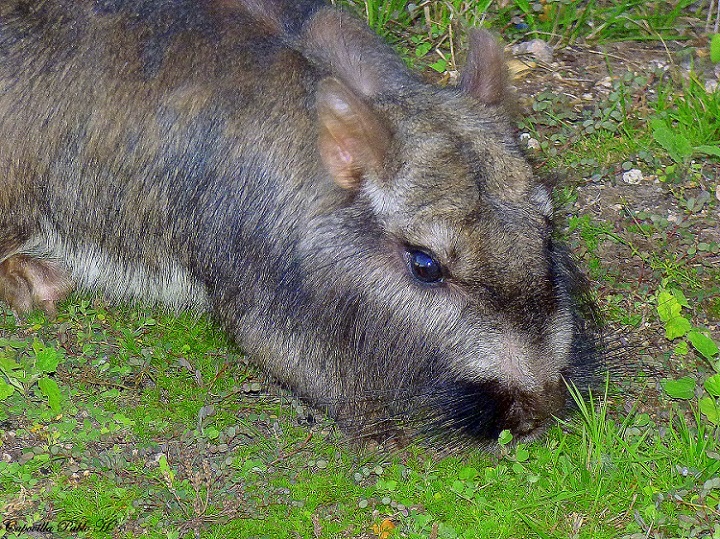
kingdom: Animalia
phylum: Chordata
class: Mammalia
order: Rodentia
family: Chinchillidae
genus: Lagostomus
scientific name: Lagostomus maximus
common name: Plains viscacha
